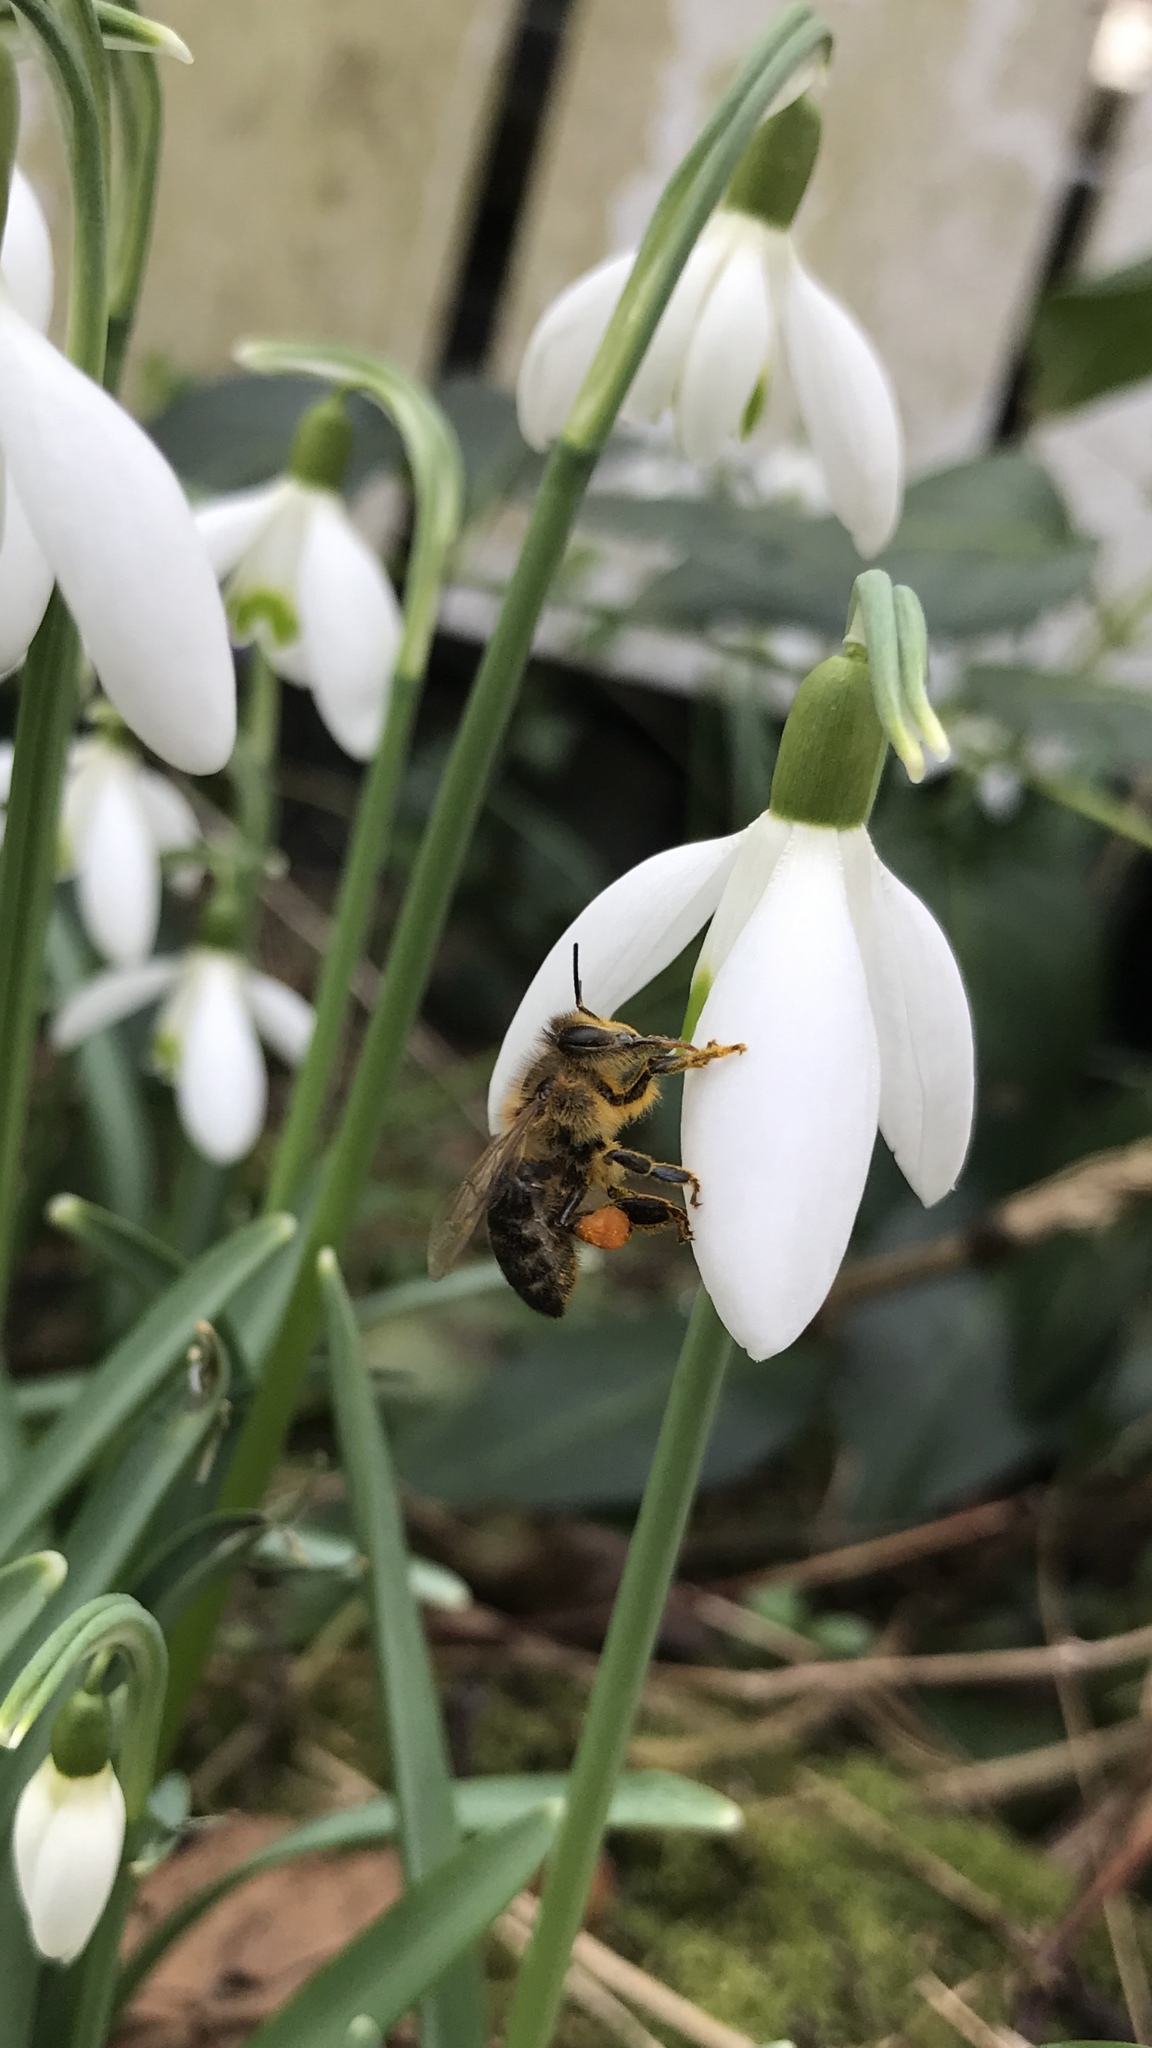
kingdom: Animalia
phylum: Arthropoda
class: Insecta
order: Hymenoptera
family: Apidae
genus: Apis
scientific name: Apis mellifera
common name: Honey bee
